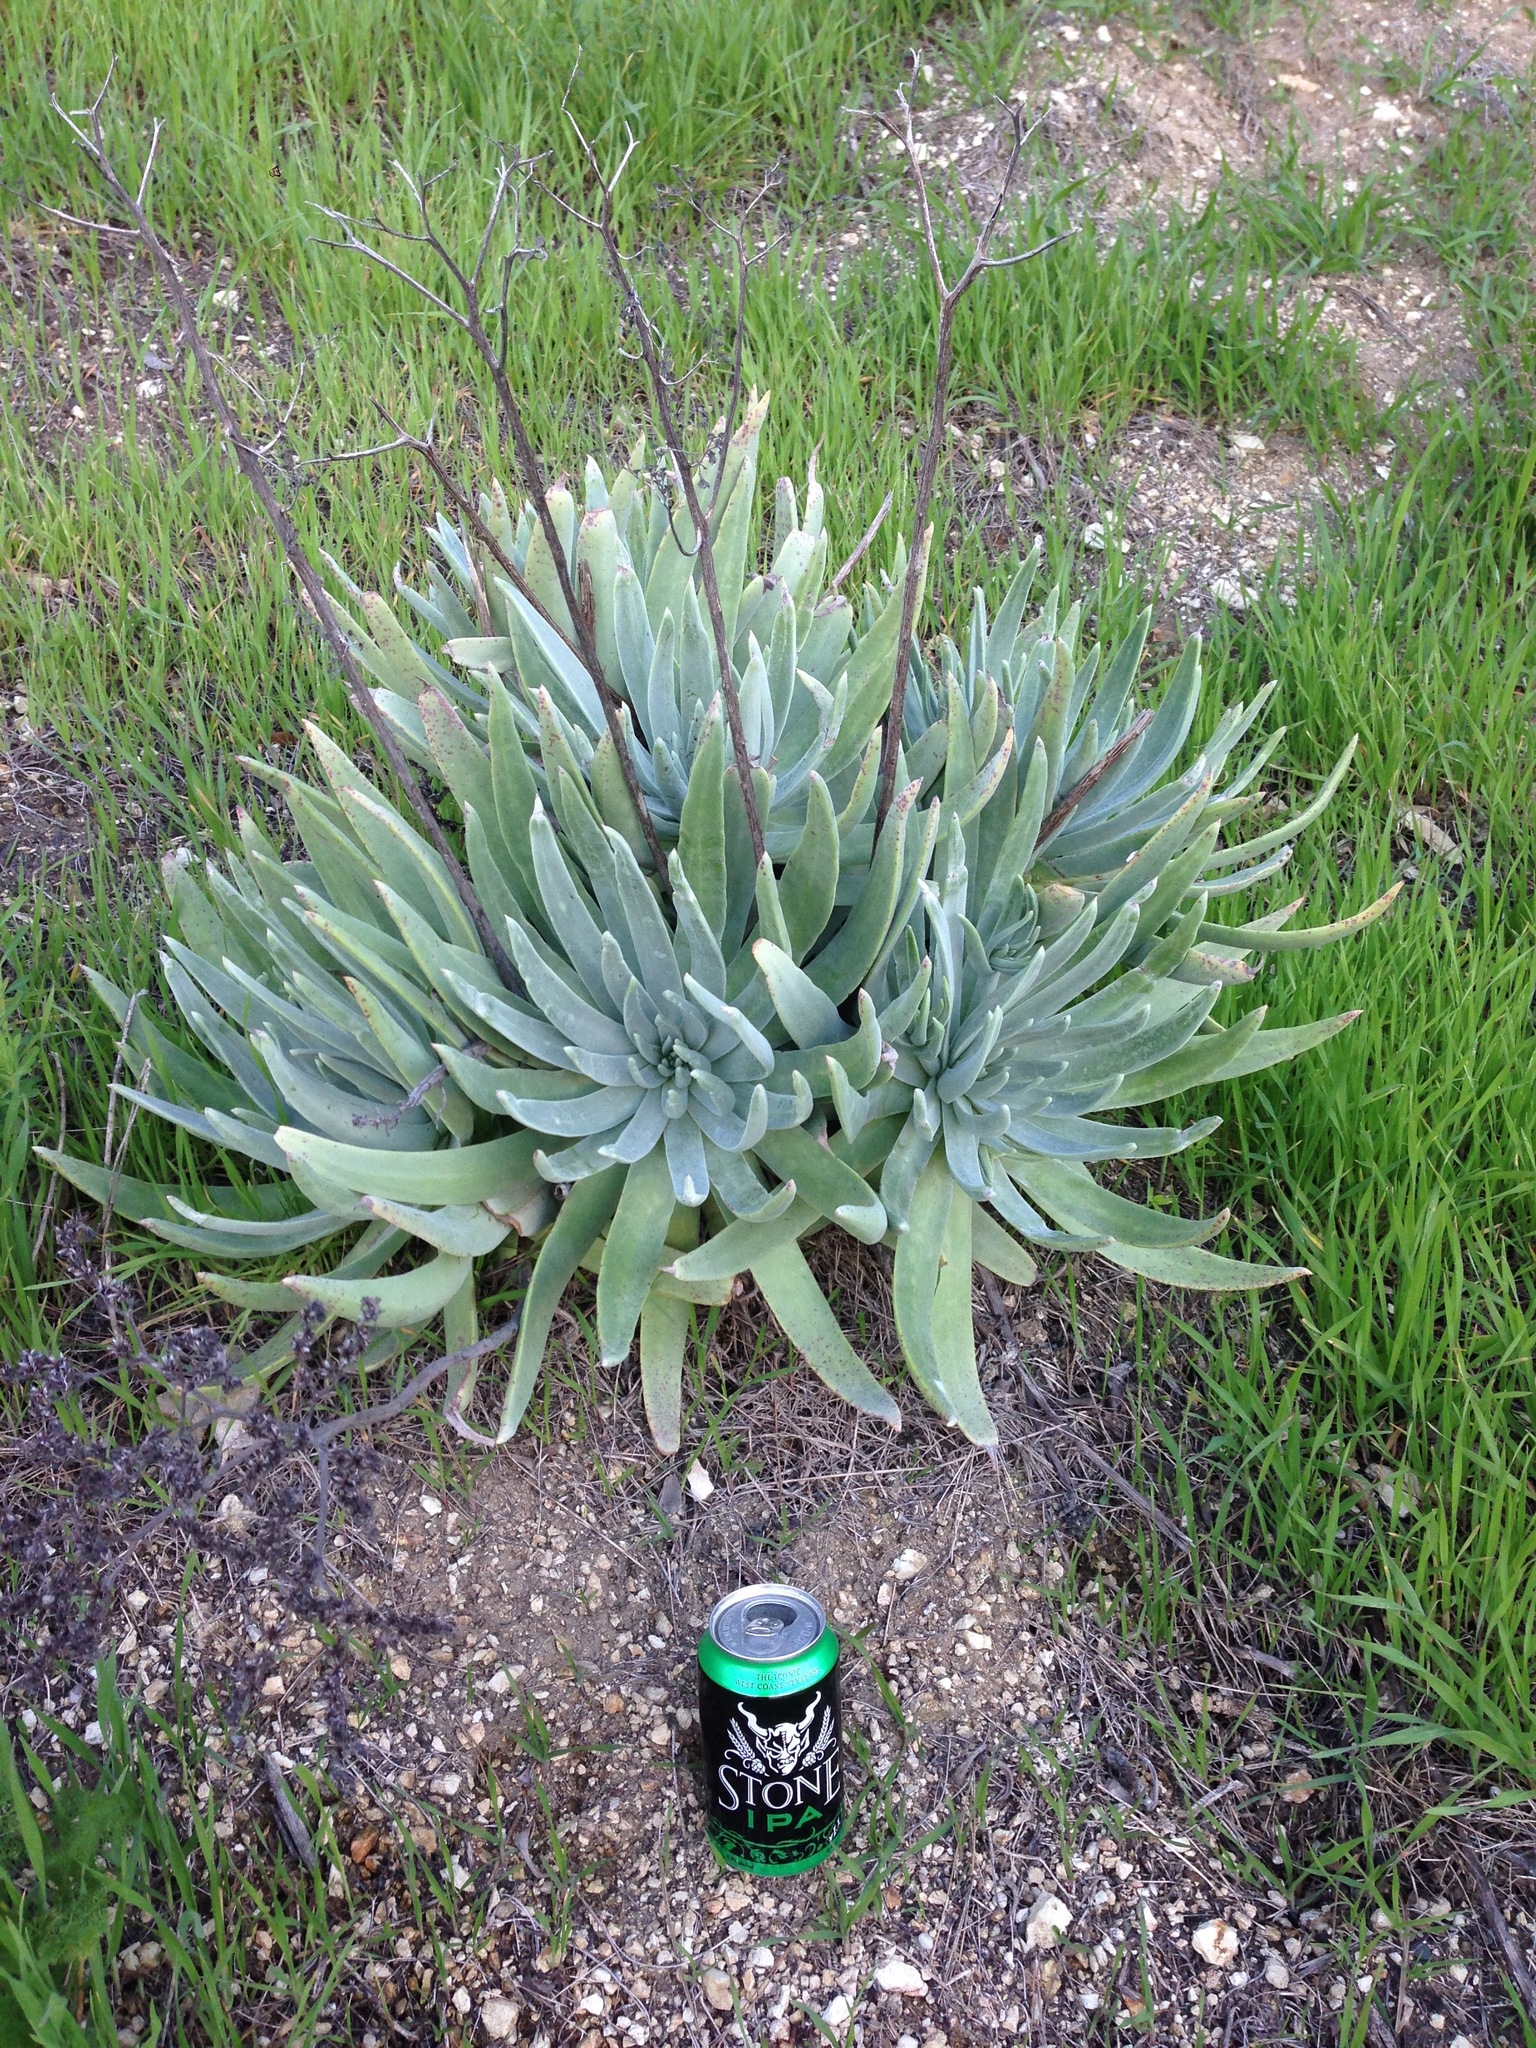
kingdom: Plantae
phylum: Tracheophyta
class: Magnoliopsida
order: Saxifragales
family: Crassulaceae
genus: Dudleya
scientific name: Dudleya virens
